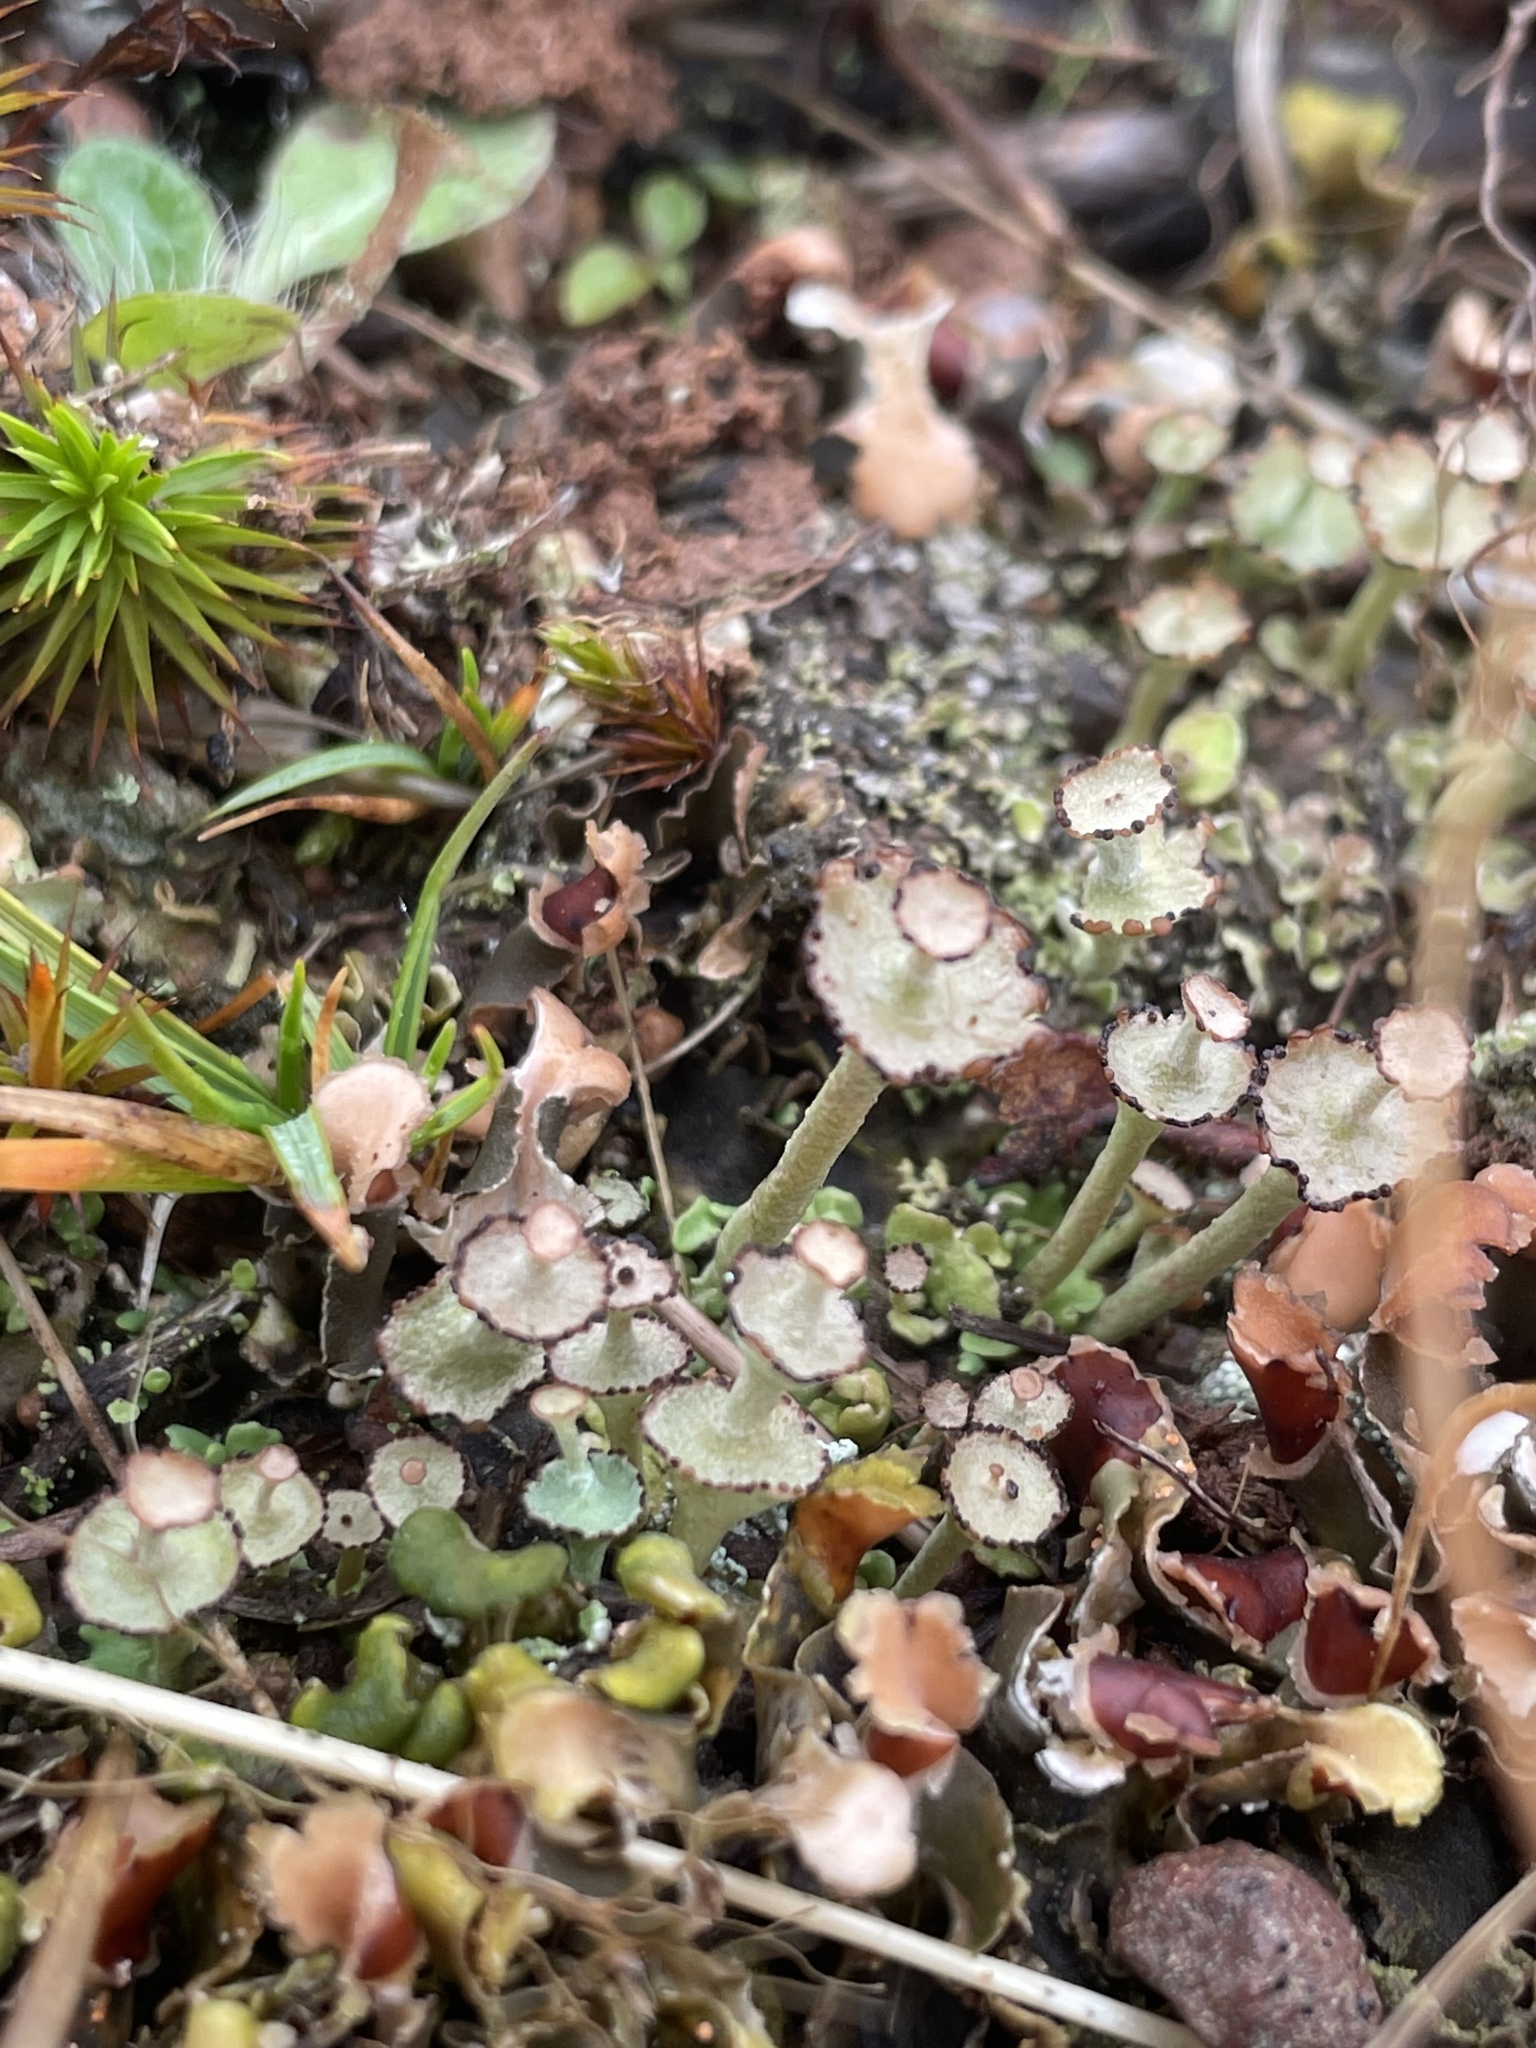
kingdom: Fungi
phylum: Ascomycota
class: Lecanoromycetes
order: Lecanorales
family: Cladoniaceae
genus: Cladonia
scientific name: Cladonia cervicornis
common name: Browned pixie-cup lichen
